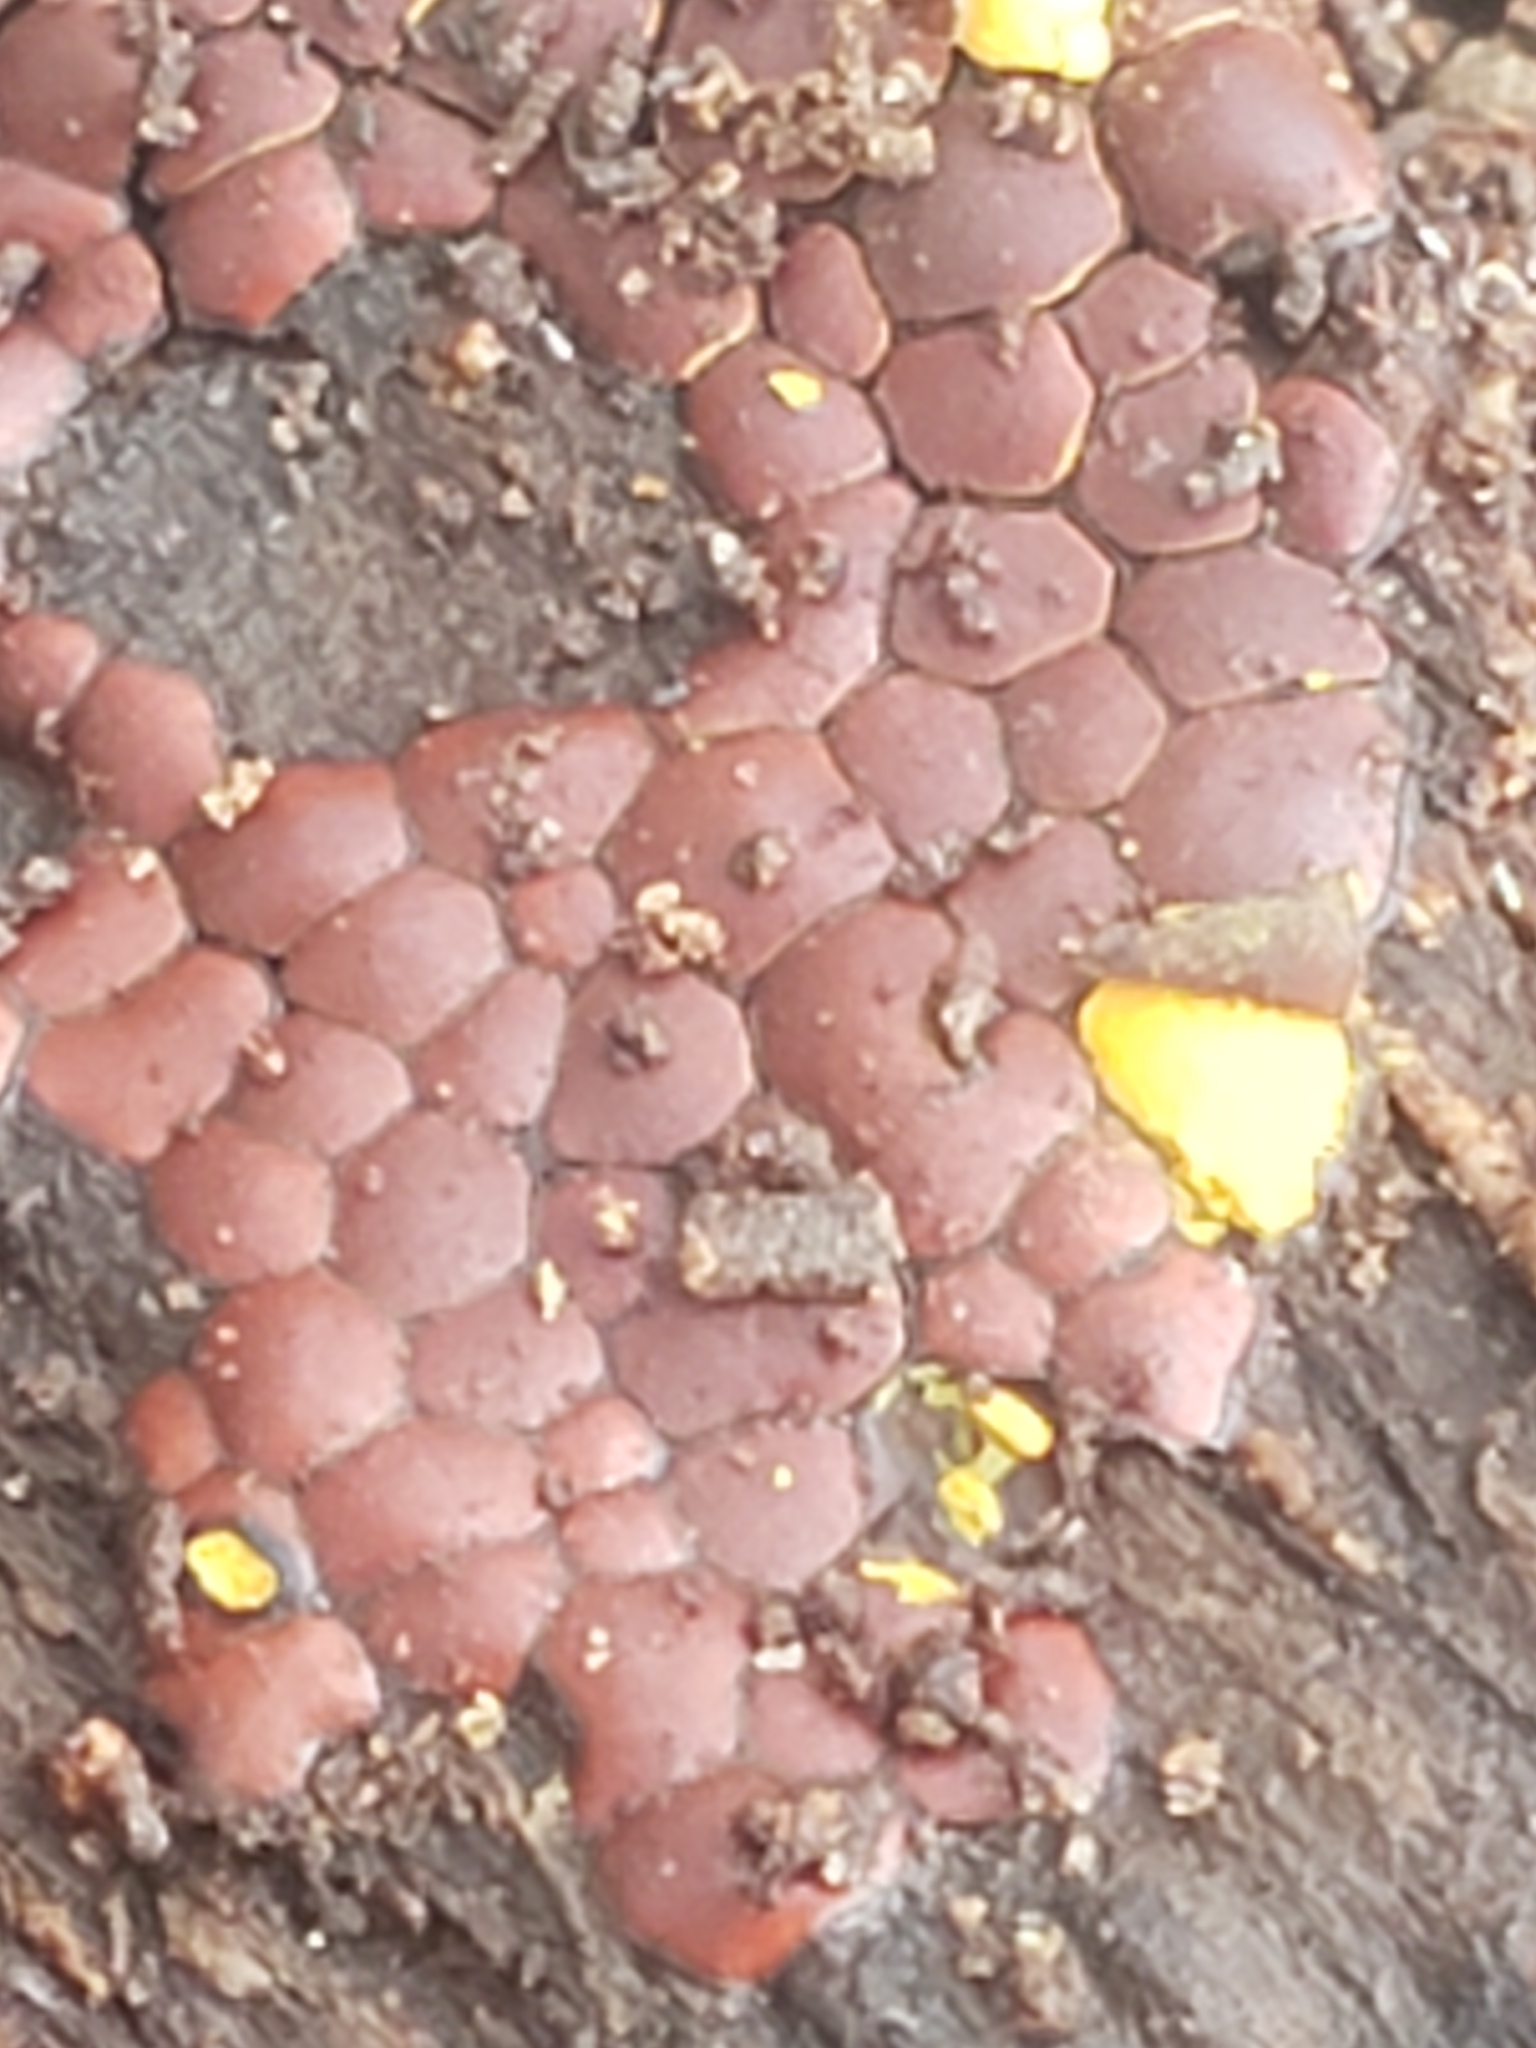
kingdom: Protozoa
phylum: Mycetozoa
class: Myxomycetes
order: Trichiales
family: Trichiaceae
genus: Perichaena
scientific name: Perichaena depressa
